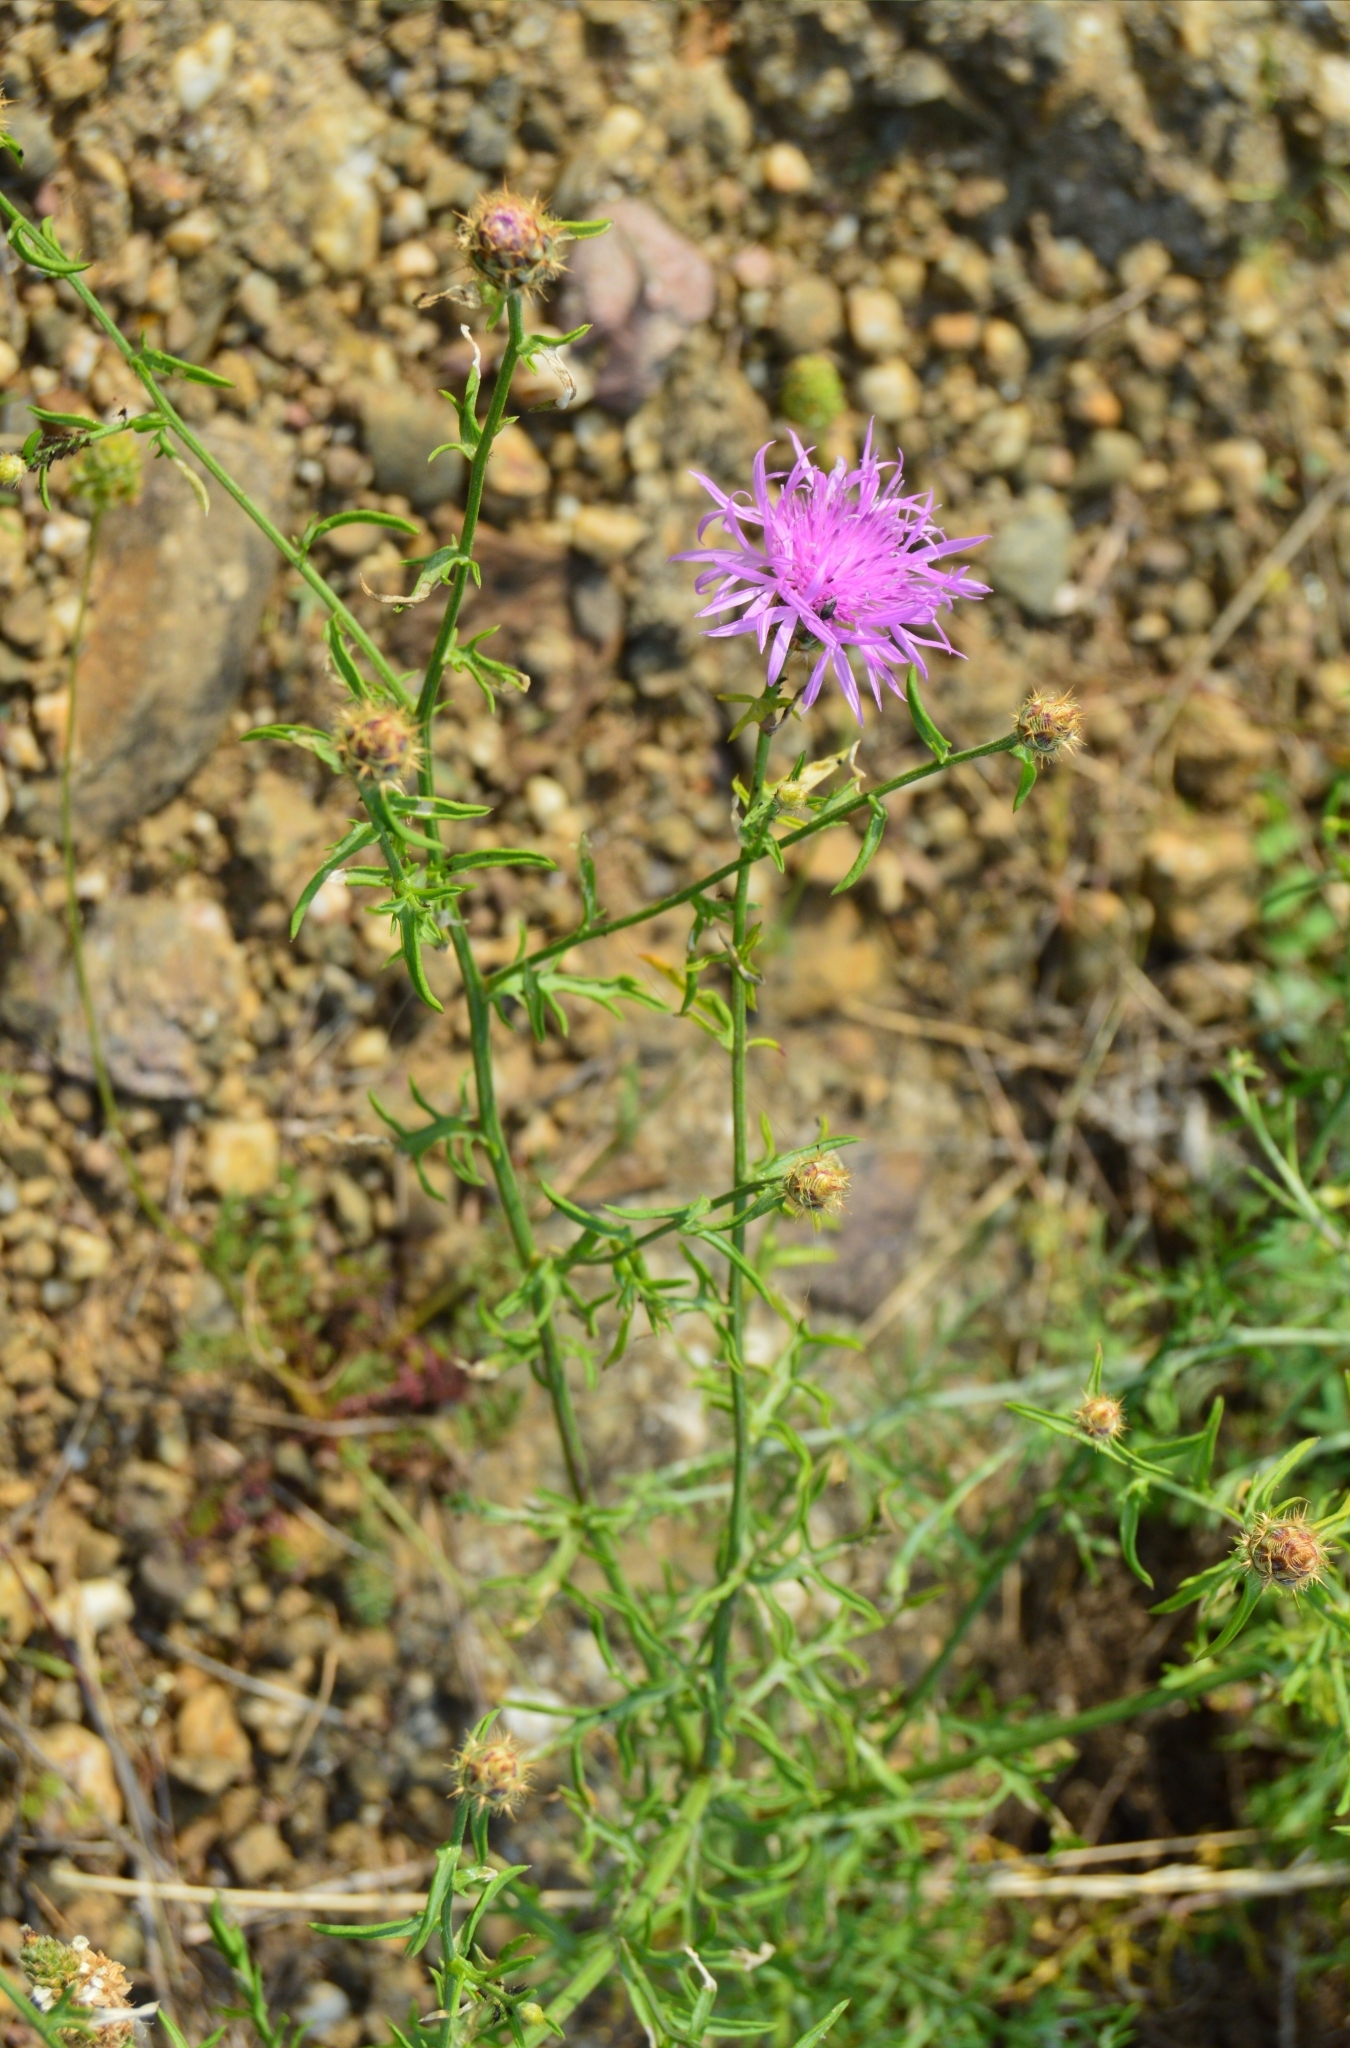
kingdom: Plantae
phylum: Tracheophyta
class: Magnoliopsida
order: Asterales
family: Asteraceae
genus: Centaurea
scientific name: Centaurea comperana
